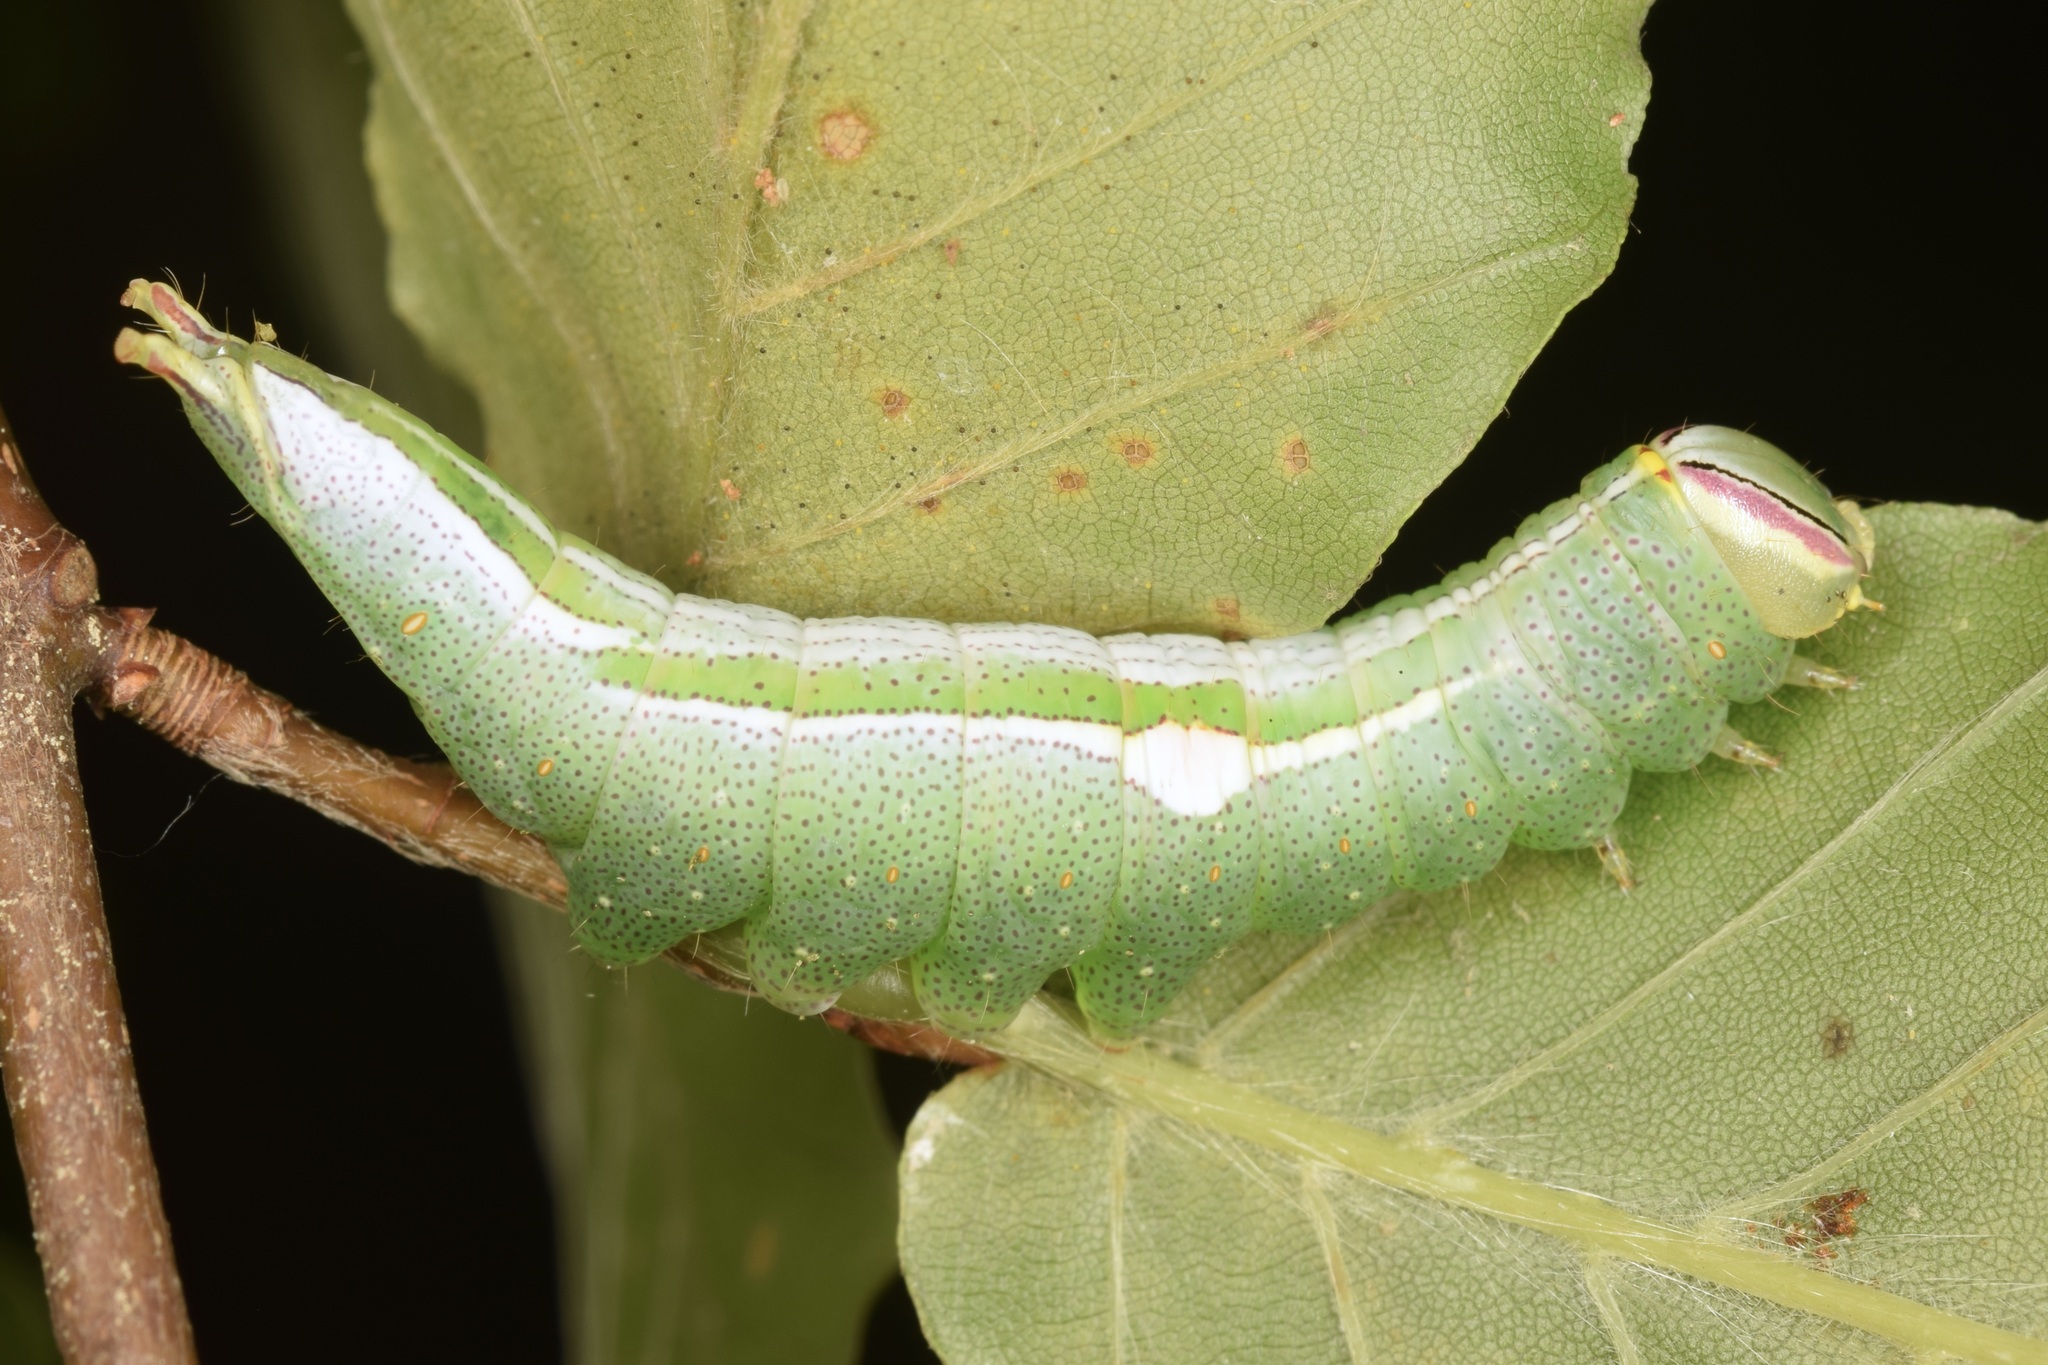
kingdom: Animalia
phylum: Arthropoda
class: Insecta
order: Lepidoptera
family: Notodontidae
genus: Disphragis
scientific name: Disphragis Cecrita guttivitta
